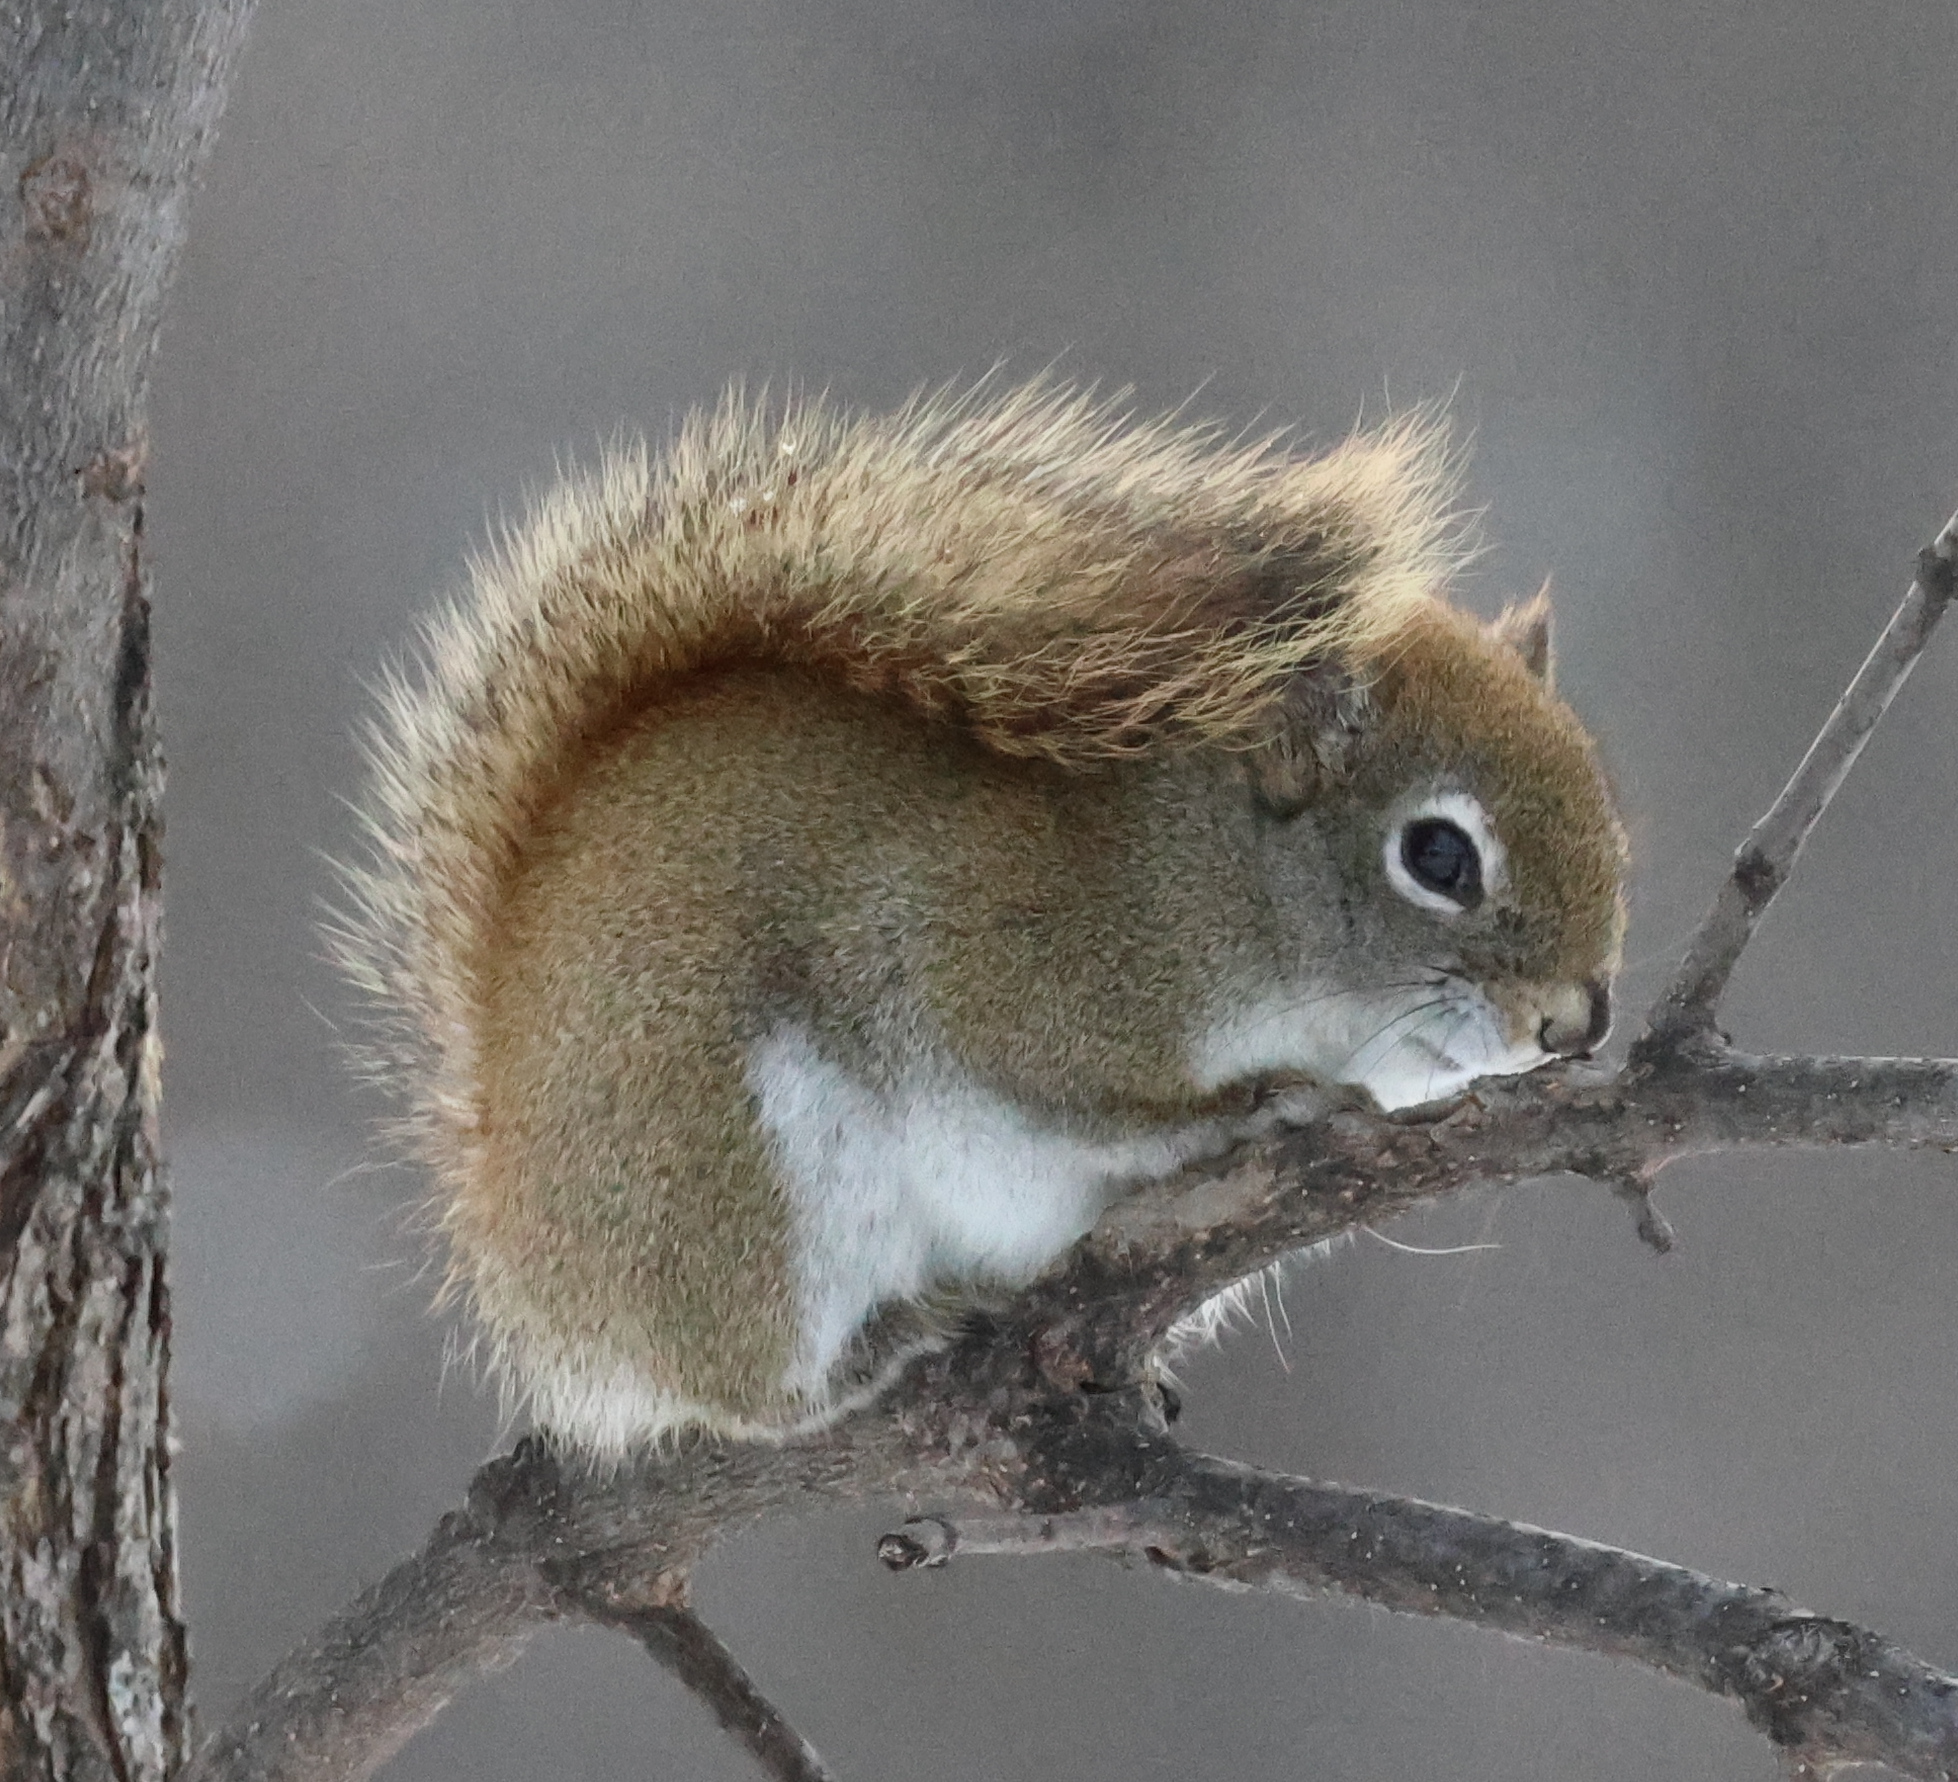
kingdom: Animalia
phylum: Chordata
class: Mammalia
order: Rodentia
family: Sciuridae
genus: Tamiasciurus
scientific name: Tamiasciurus hudsonicus
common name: Red squirrel
